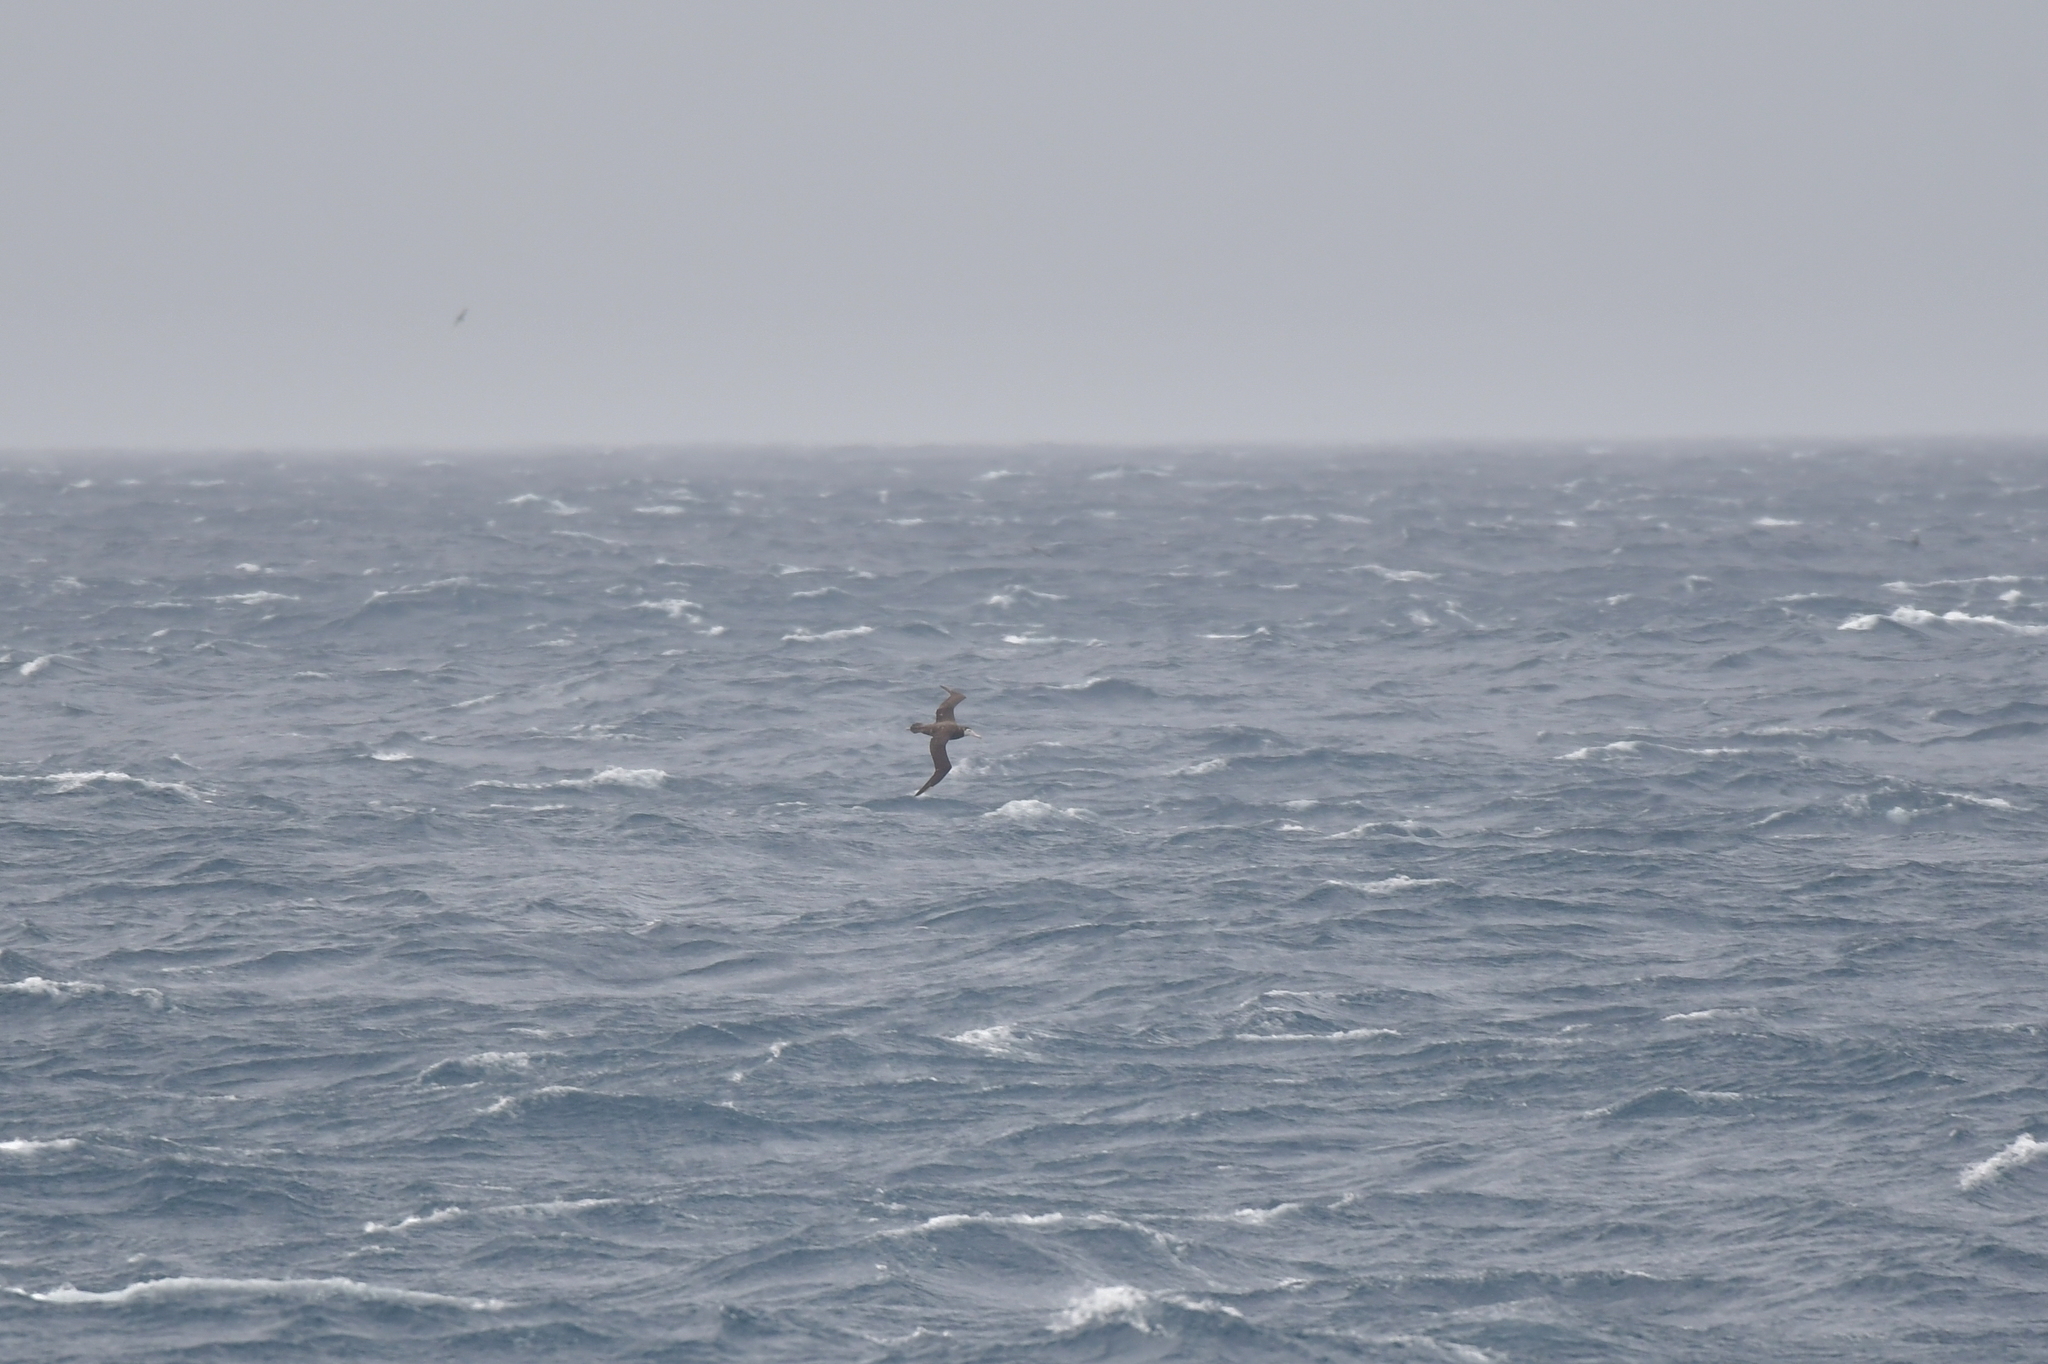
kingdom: Animalia
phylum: Chordata
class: Aves
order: Procellariiformes
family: Diomedeidae
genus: Diomedea
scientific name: Diomedea antipodensis
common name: Antipodean albatross
